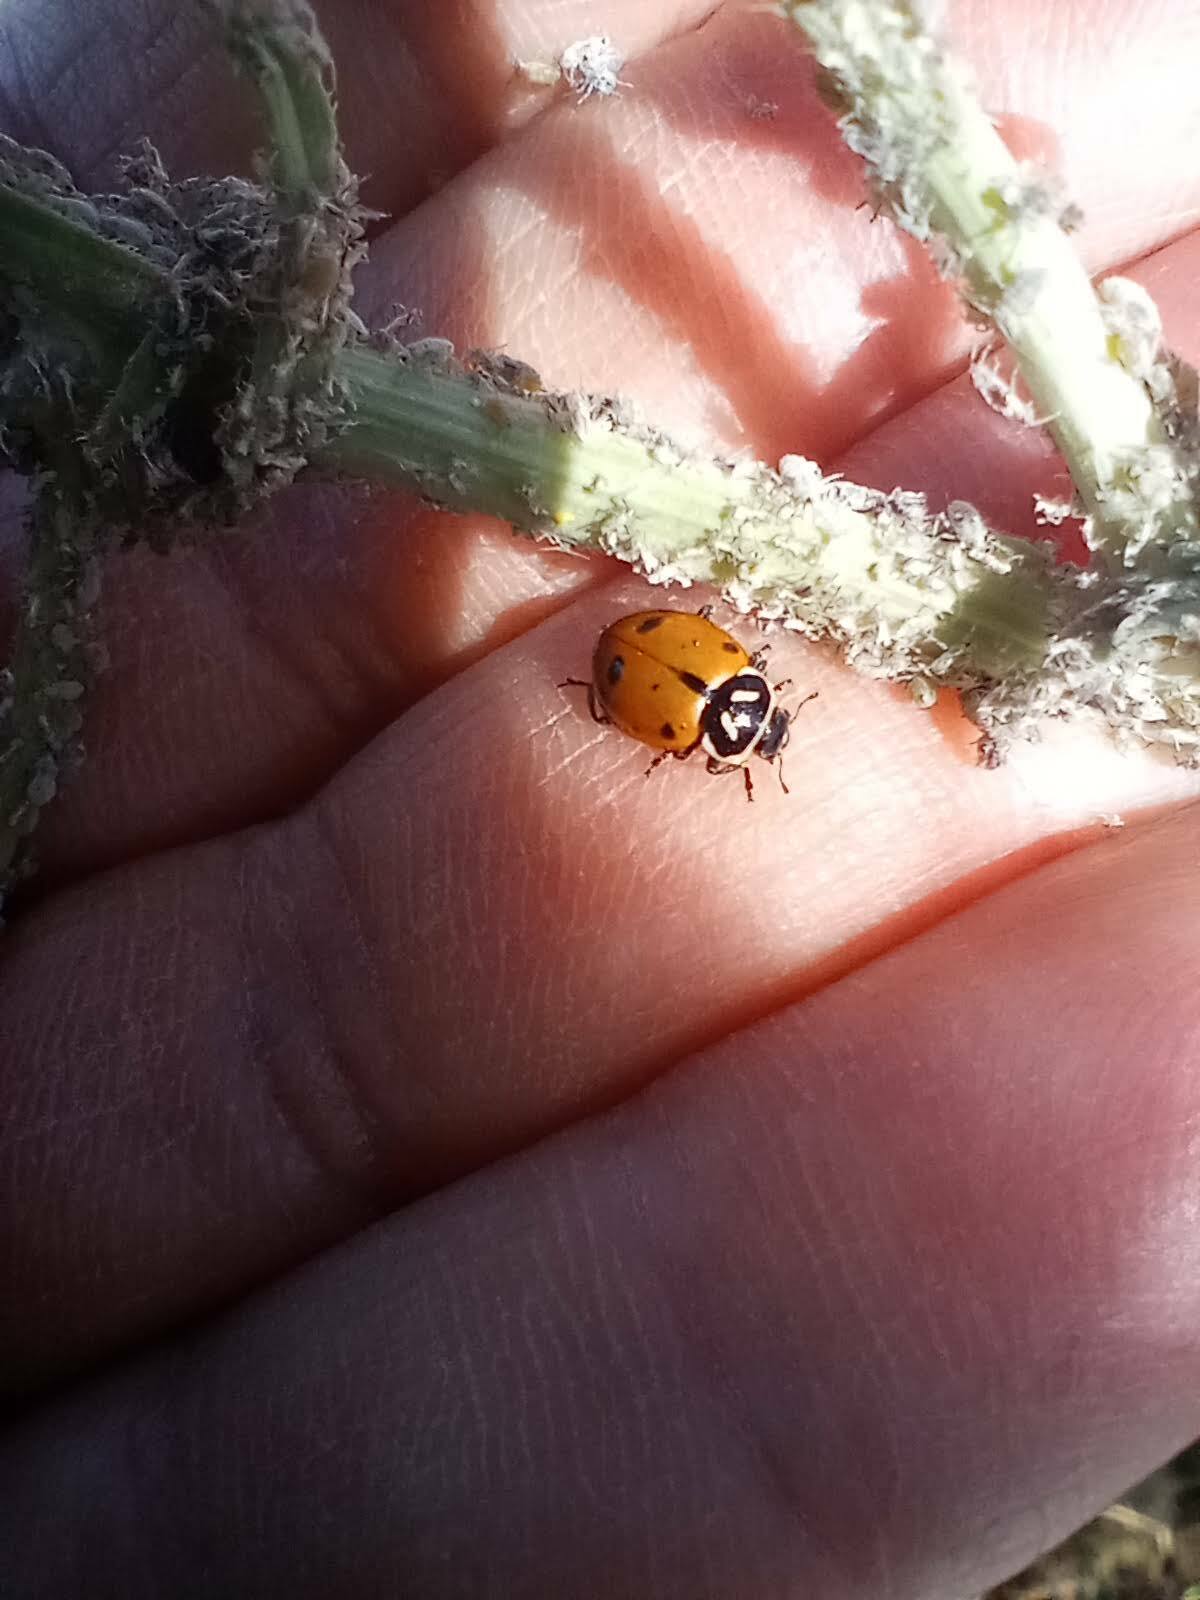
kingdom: Animalia
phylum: Arthropoda
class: Insecta
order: Coleoptera
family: Coccinellidae
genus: Hippodamia
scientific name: Hippodamia convergens
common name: Convergent lady beetle
